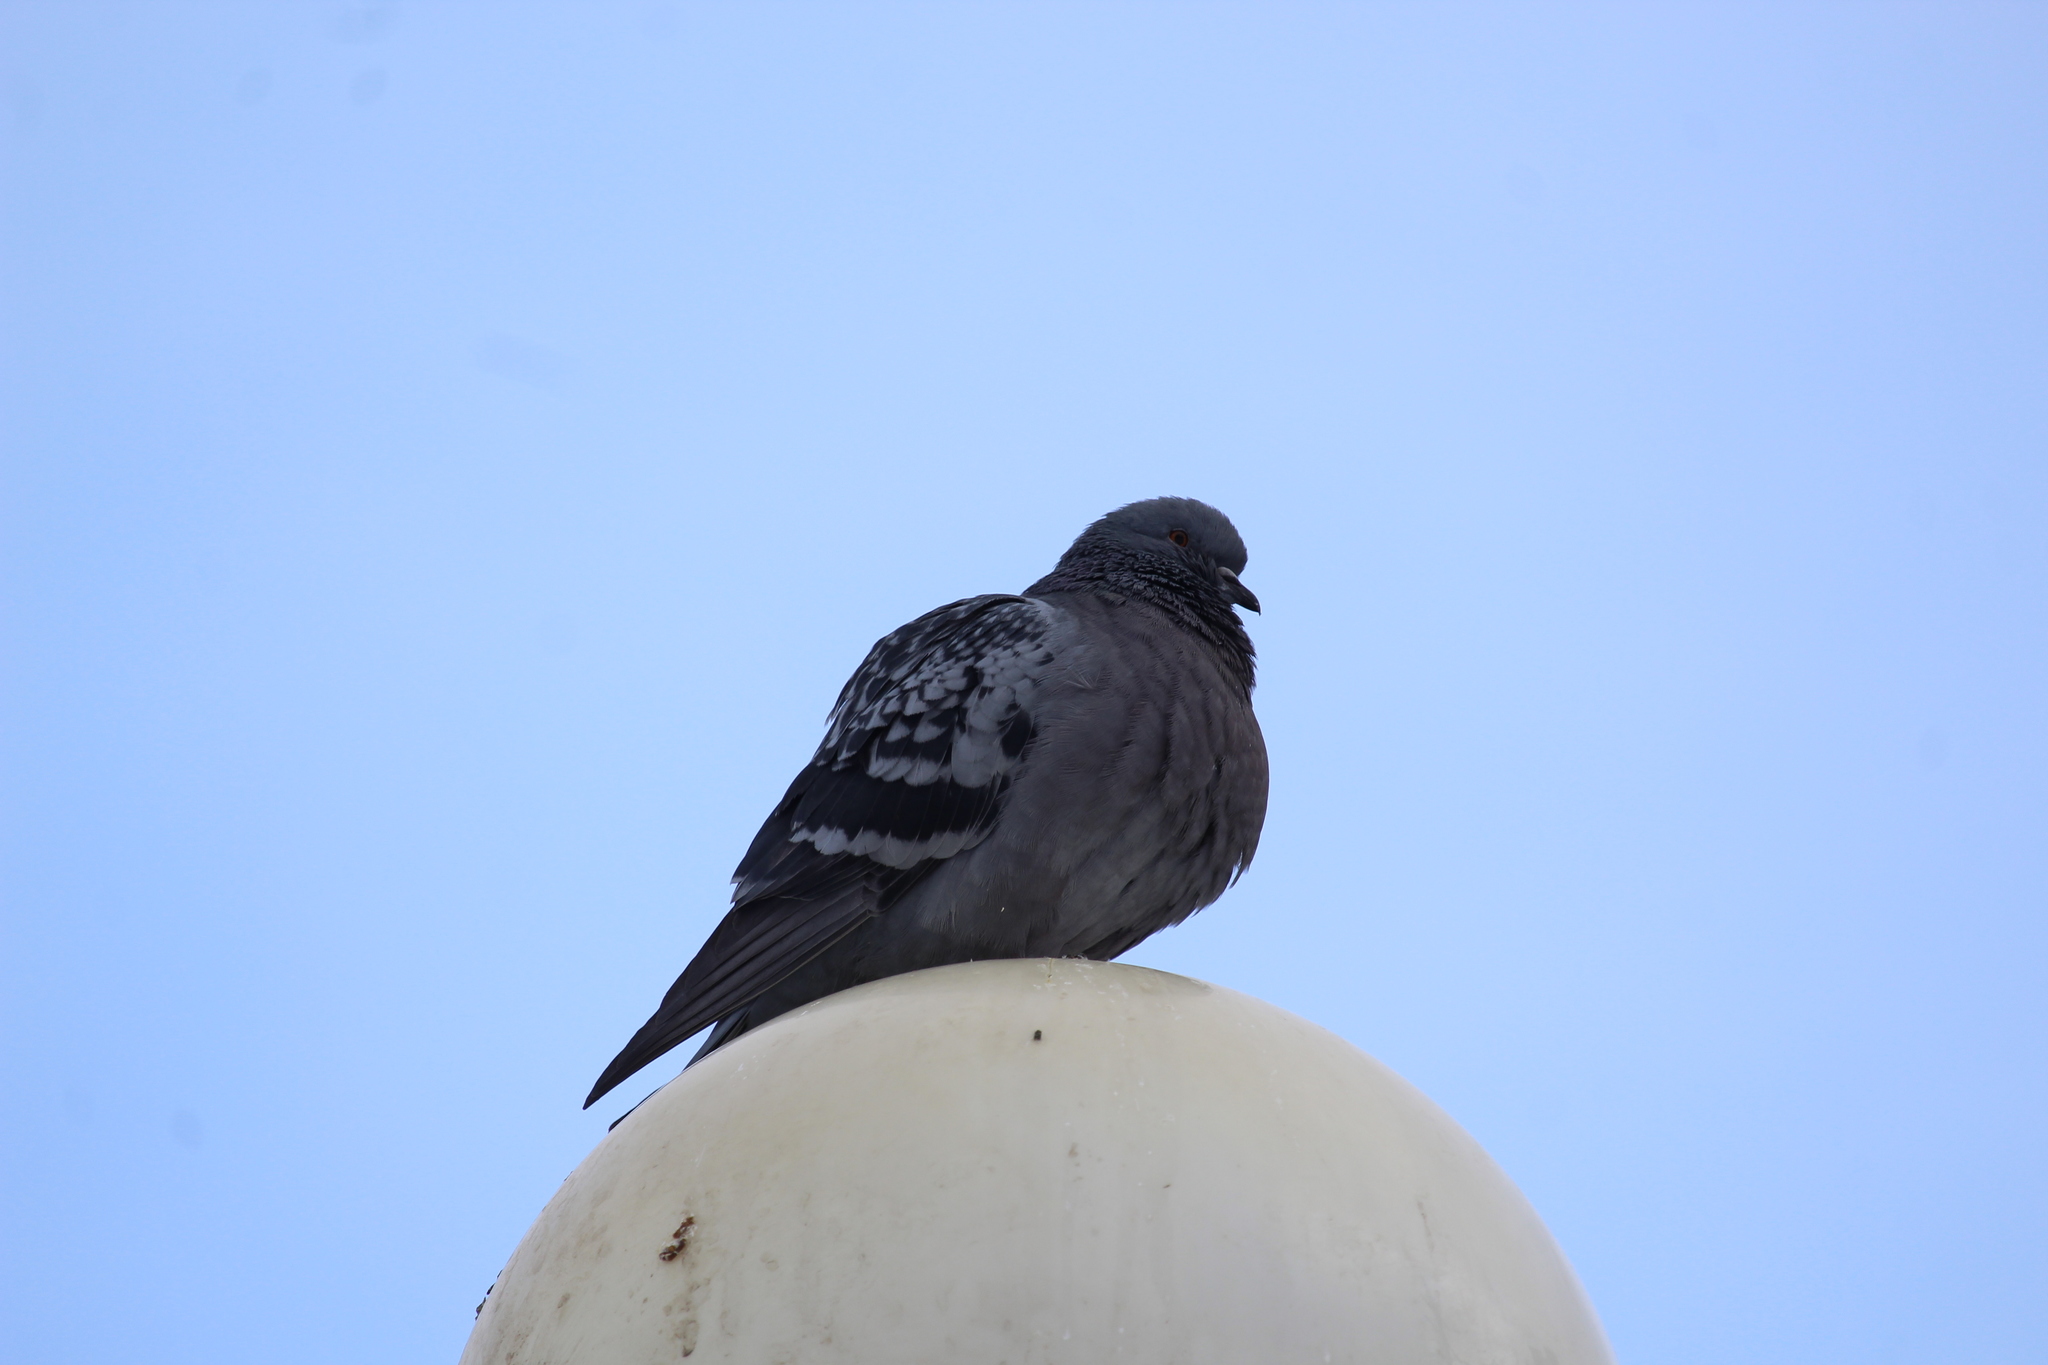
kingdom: Animalia
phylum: Chordata
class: Aves
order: Columbiformes
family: Columbidae
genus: Columba
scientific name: Columba livia
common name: Rock pigeon
